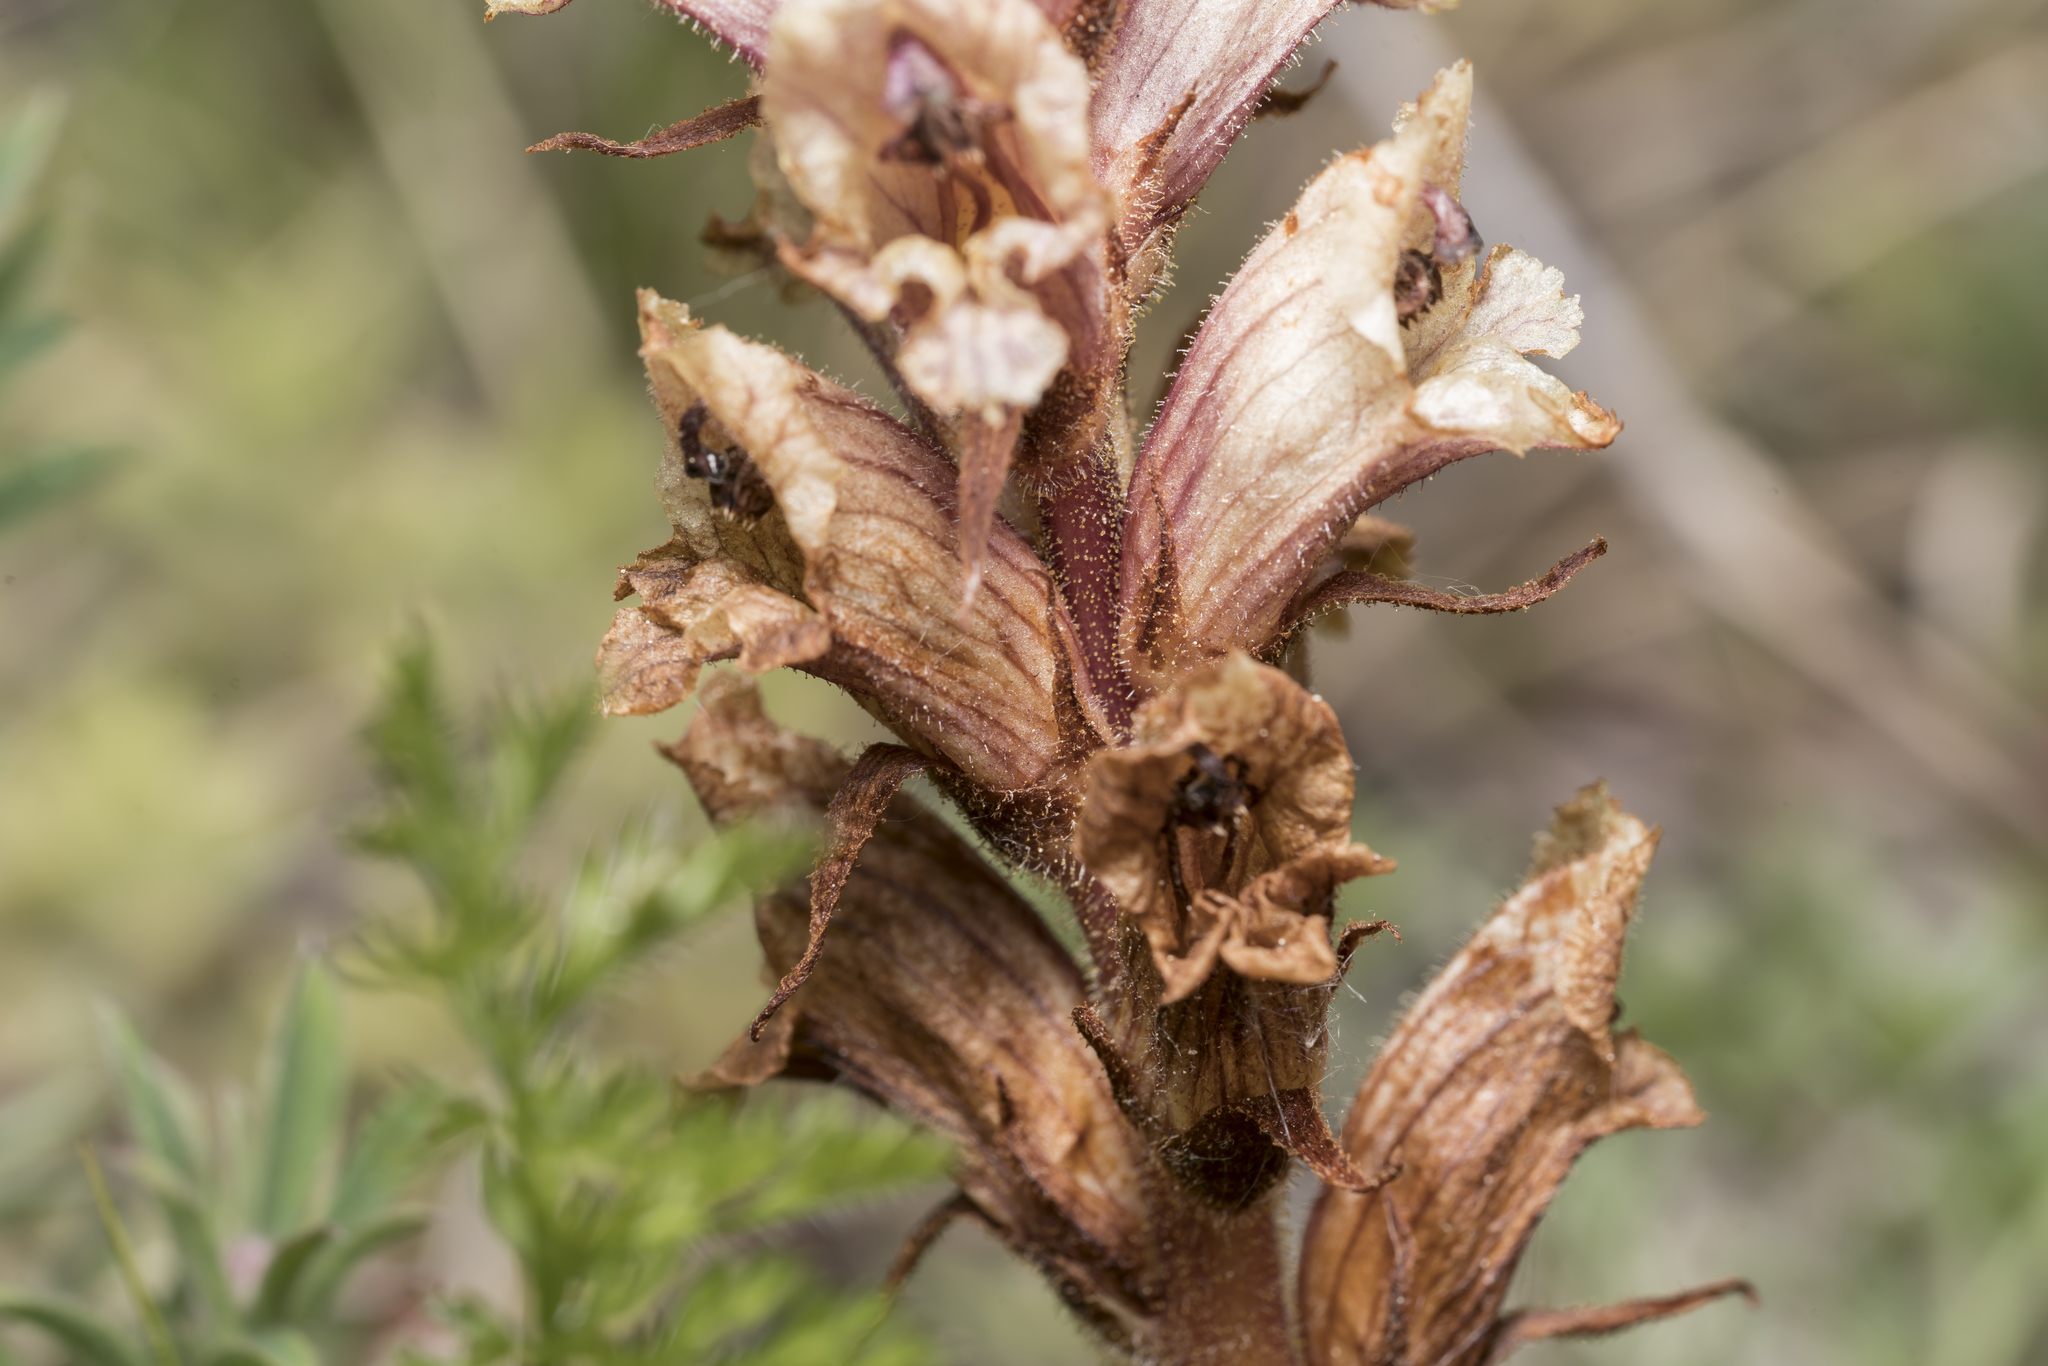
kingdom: Plantae
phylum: Tracheophyta
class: Magnoliopsida
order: Lamiales
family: Orobanchaceae
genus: Orobanche
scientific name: Orobanche alba
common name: Thyme broomrape
